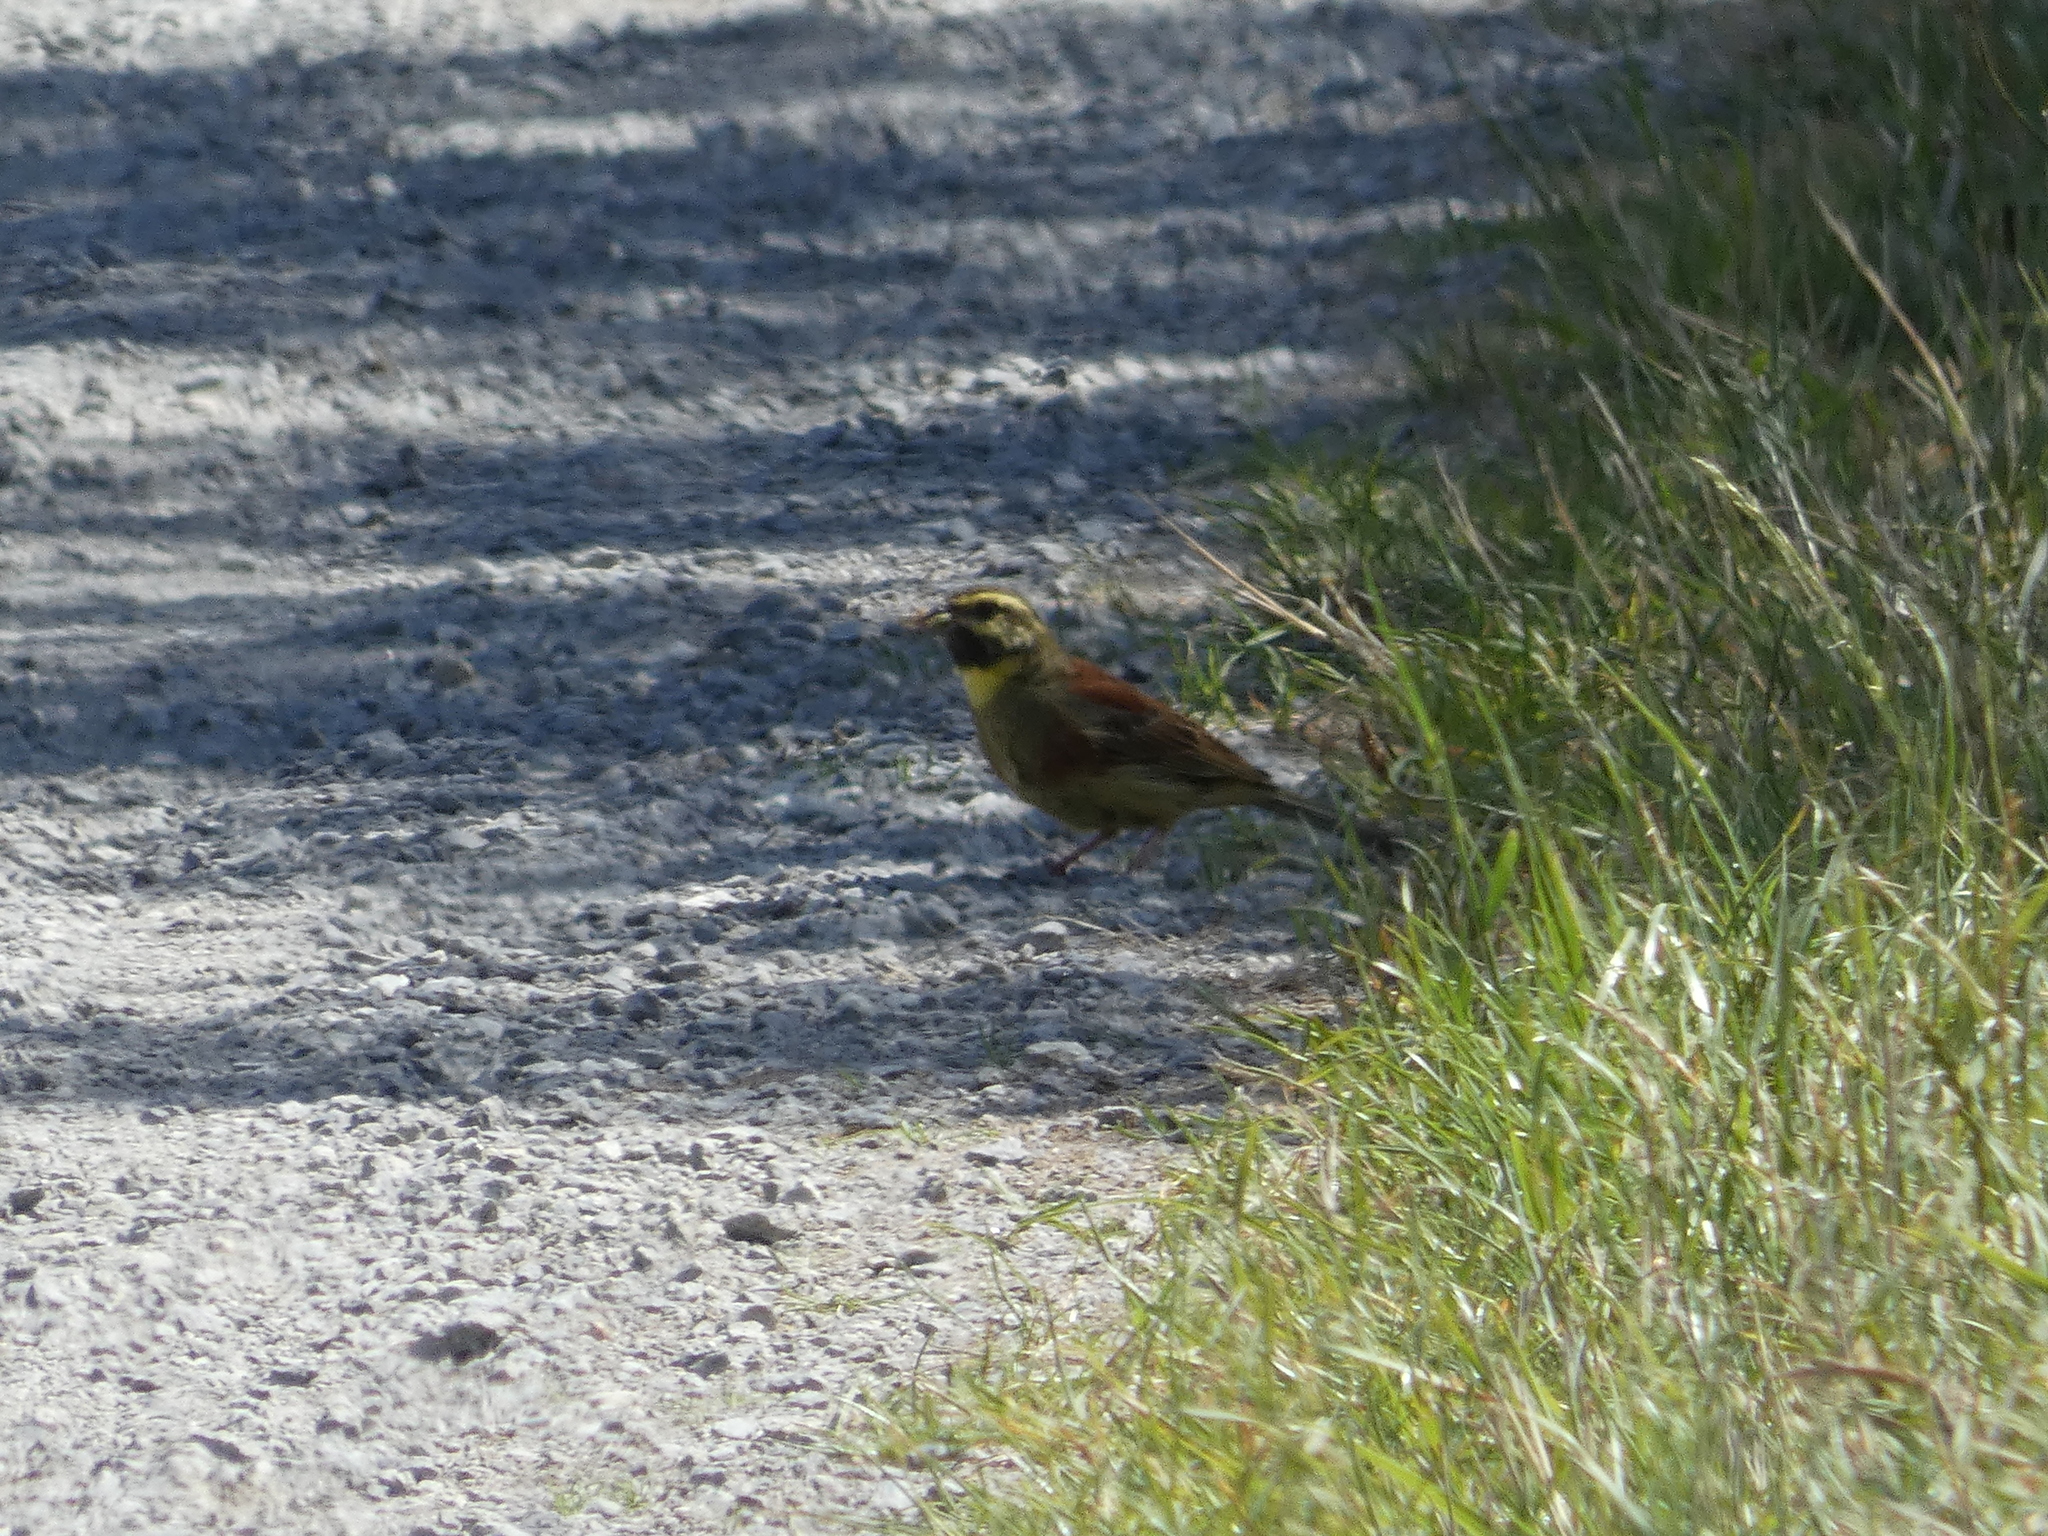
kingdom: Animalia
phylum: Chordata
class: Aves
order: Passeriformes
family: Emberizidae
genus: Emberiza
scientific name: Emberiza cirlus
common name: Cirl bunting
